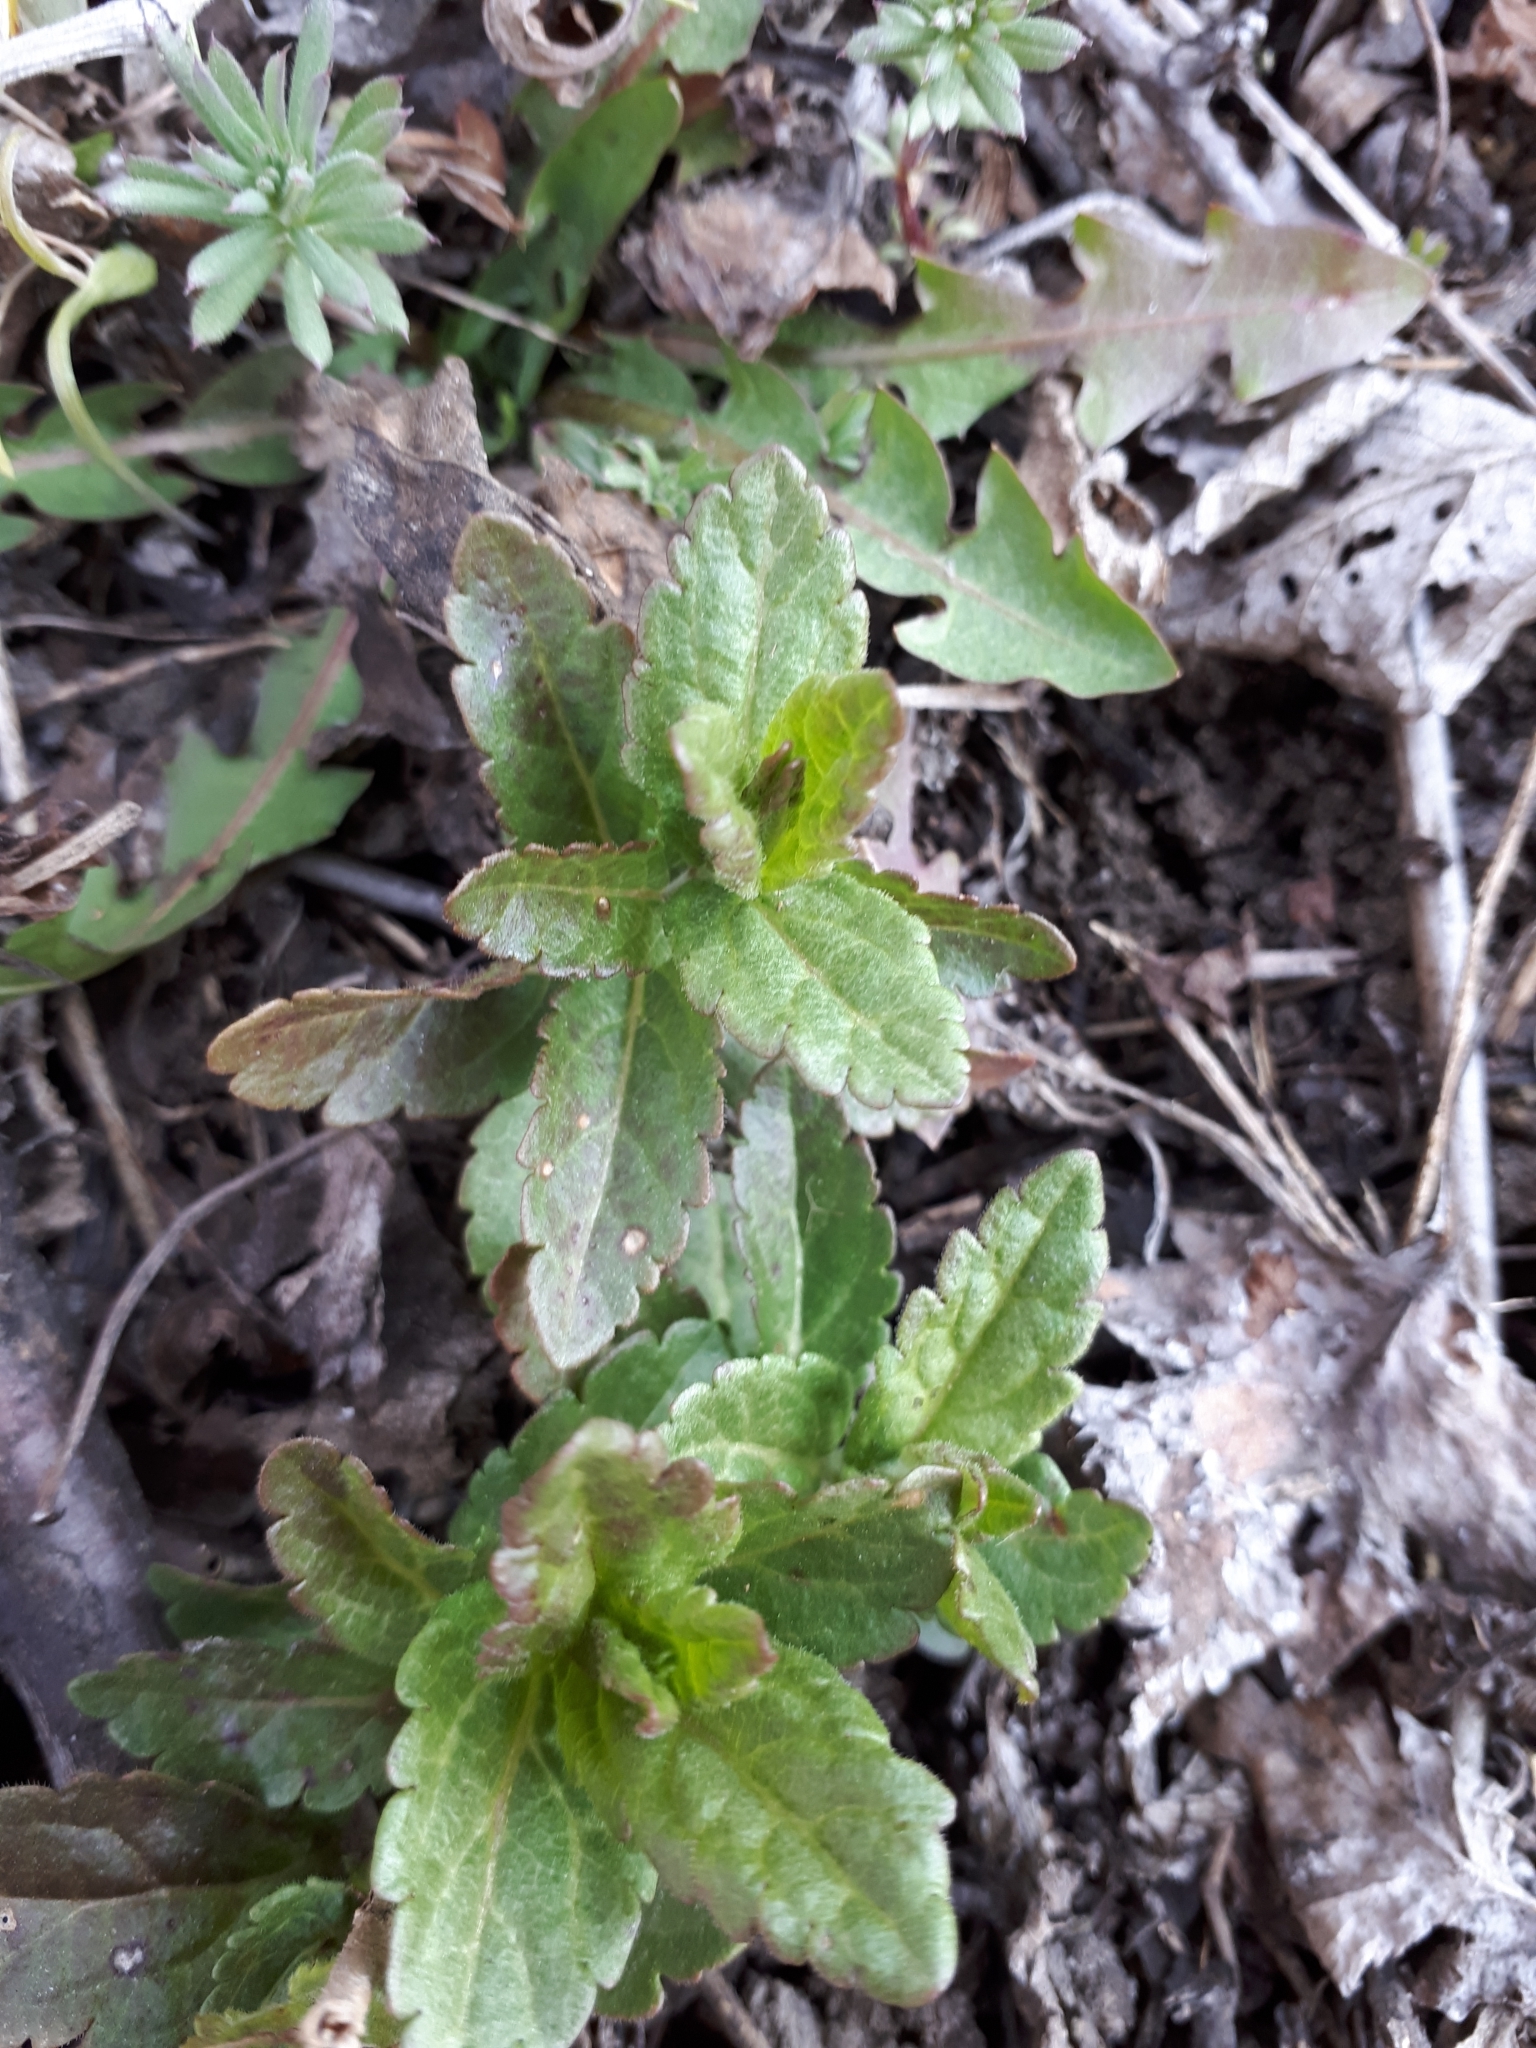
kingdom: Plantae
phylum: Tracheophyta
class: Magnoliopsida
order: Lamiales
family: Plantaginaceae
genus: Veronica
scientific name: Veronica chamaedrys
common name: Germander speedwell
